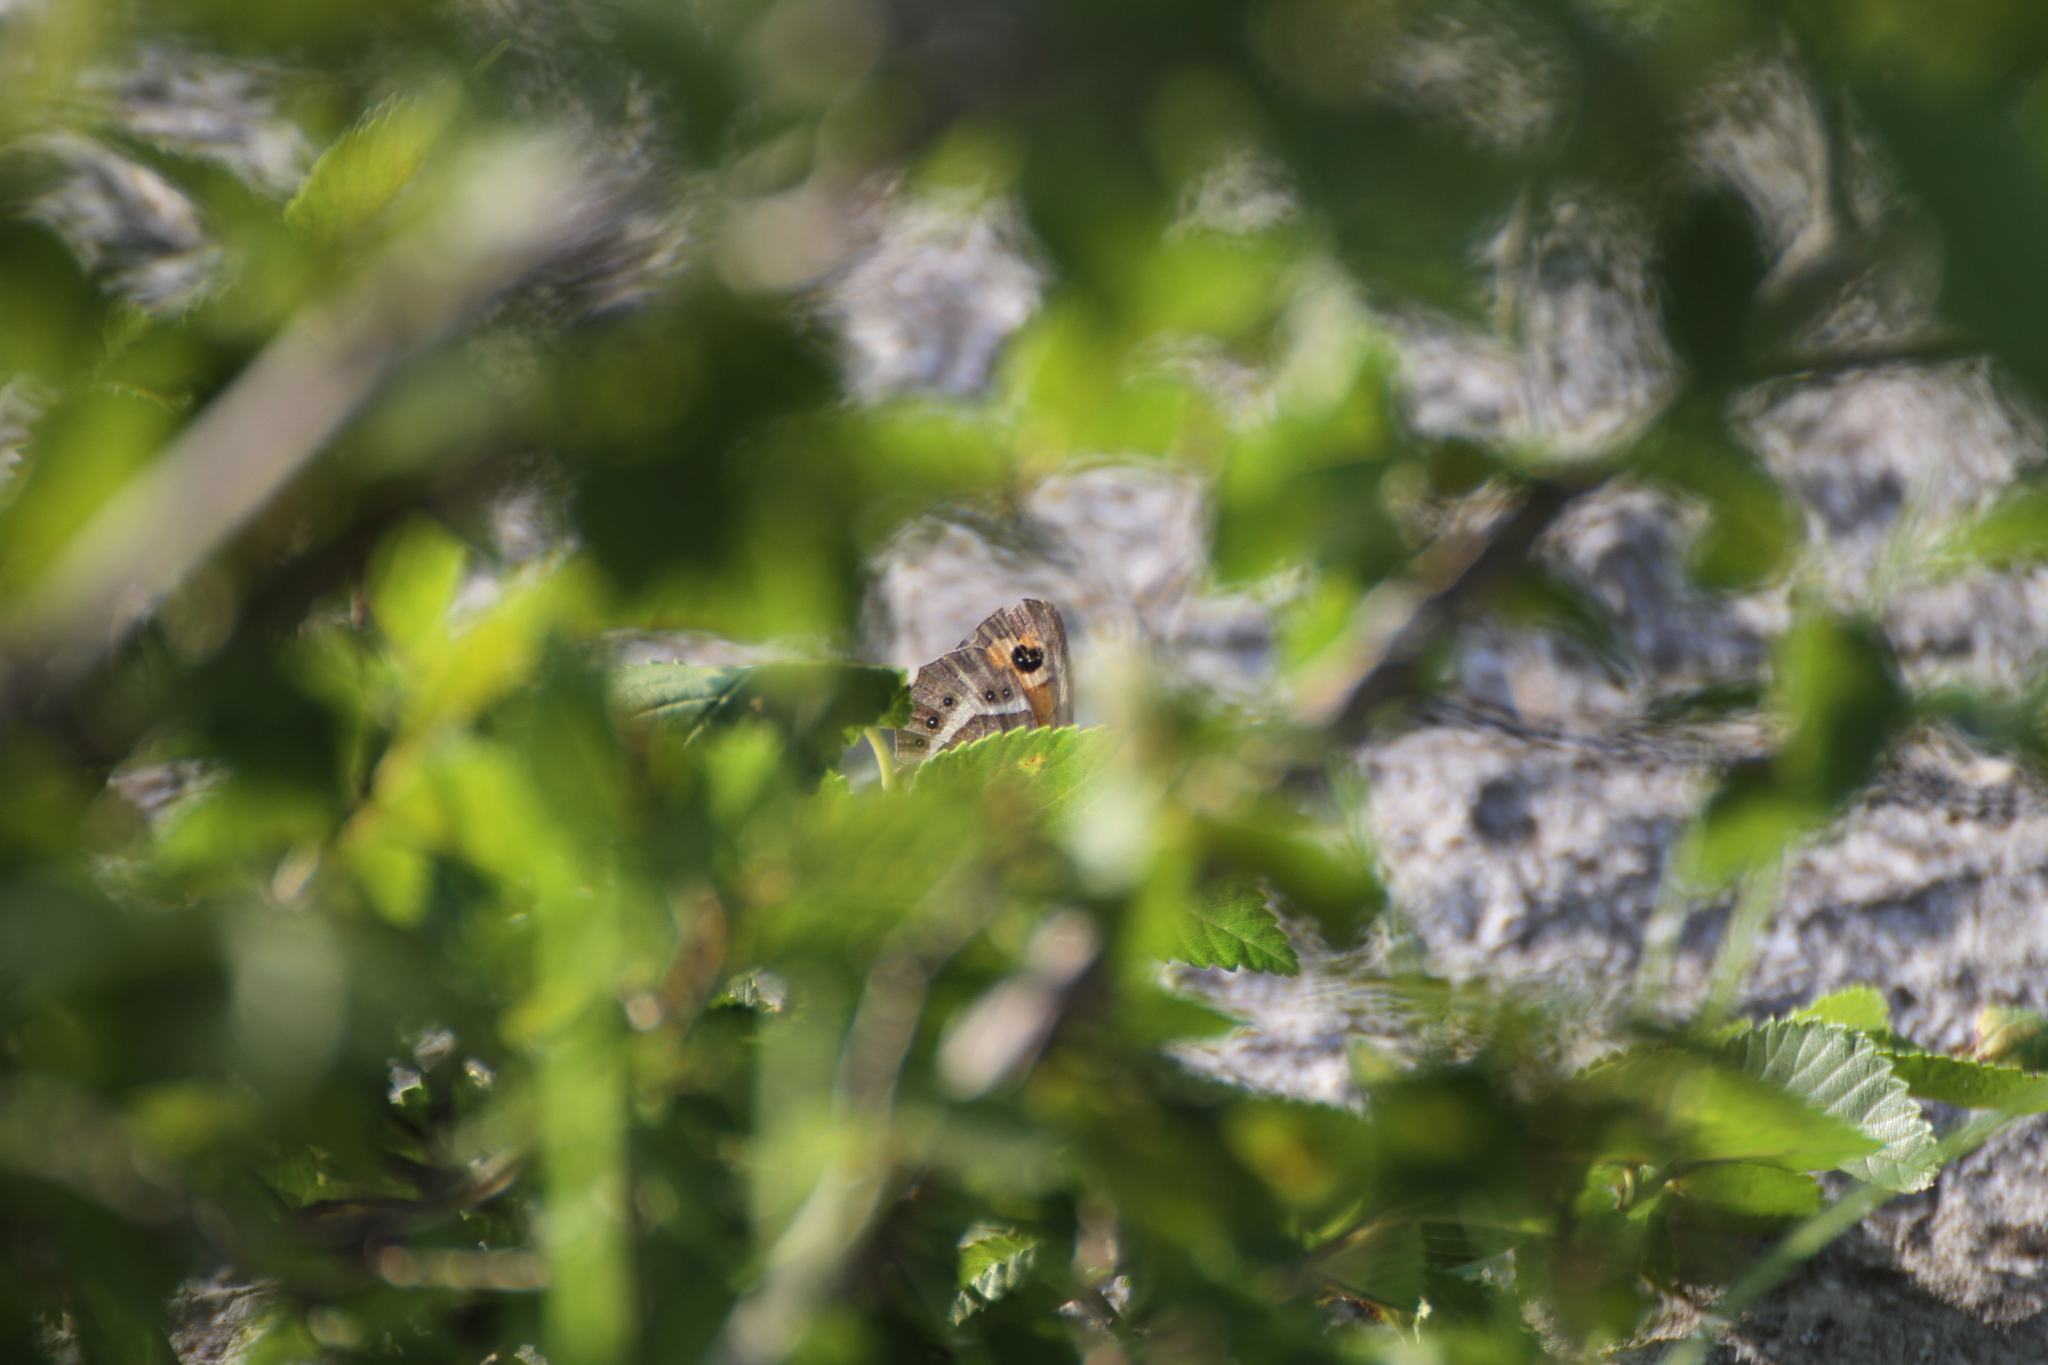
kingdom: Animalia
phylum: Arthropoda
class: Insecta
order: Lepidoptera
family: Nymphalidae
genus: Pyronia
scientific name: Pyronia bathseba
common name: Spanish gatekeeper
